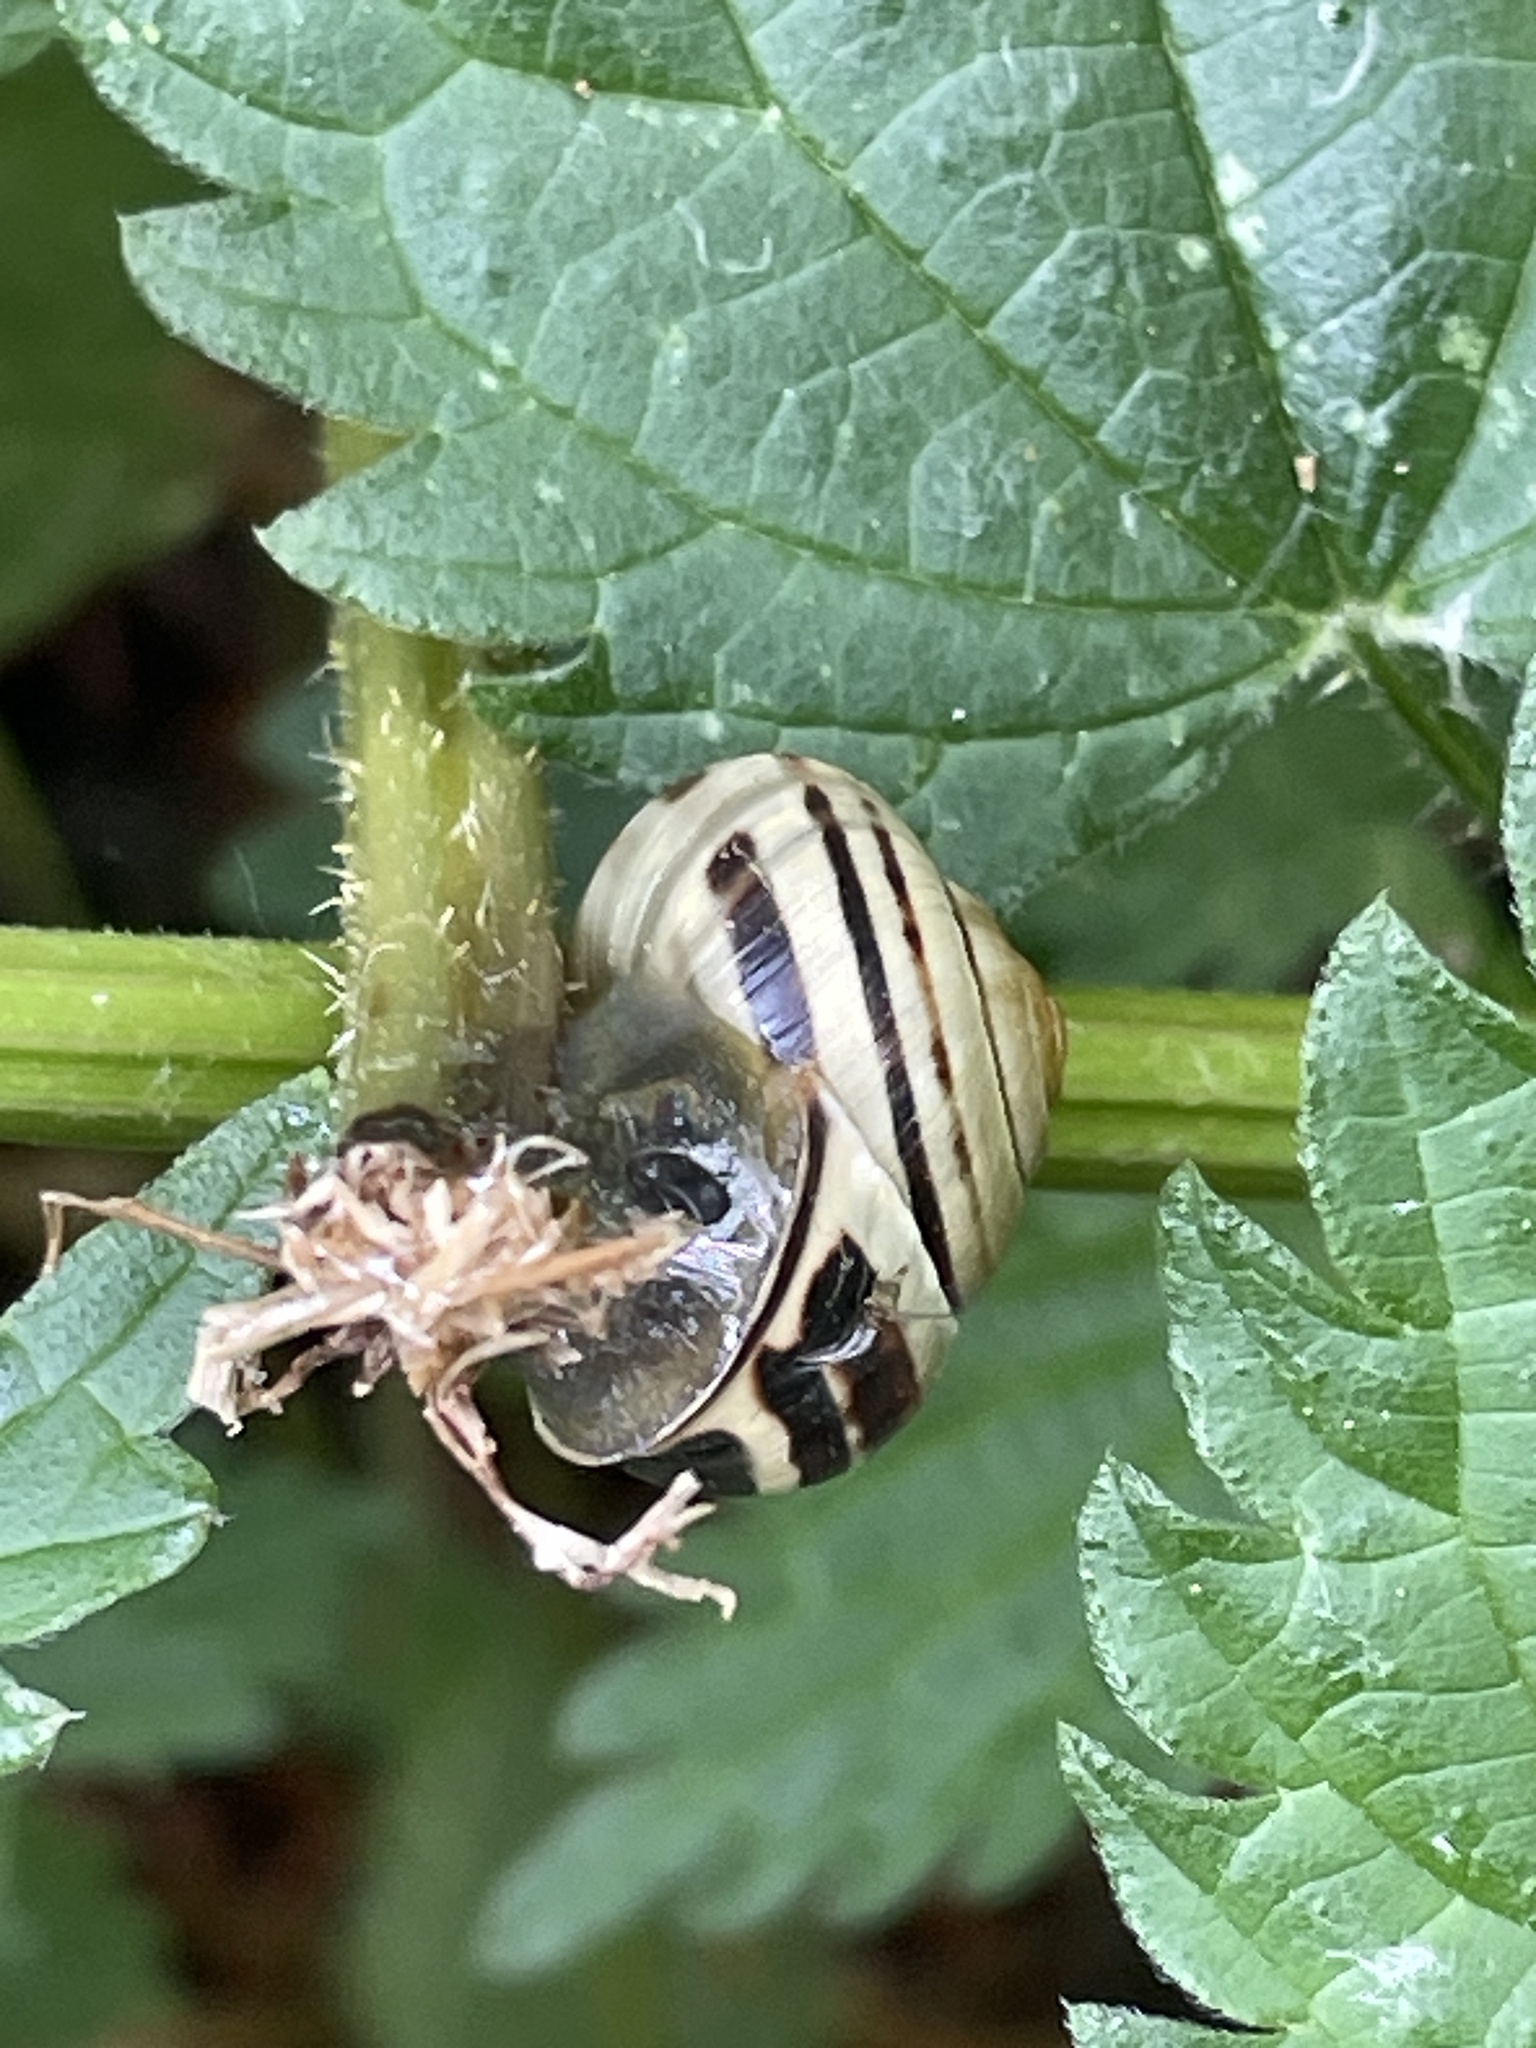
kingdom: Animalia
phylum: Mollusca
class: Gastropoda
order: Stylommatophora
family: Helicidae
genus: Cepaea
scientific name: Cepaea nemoralis
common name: Grovesnail
